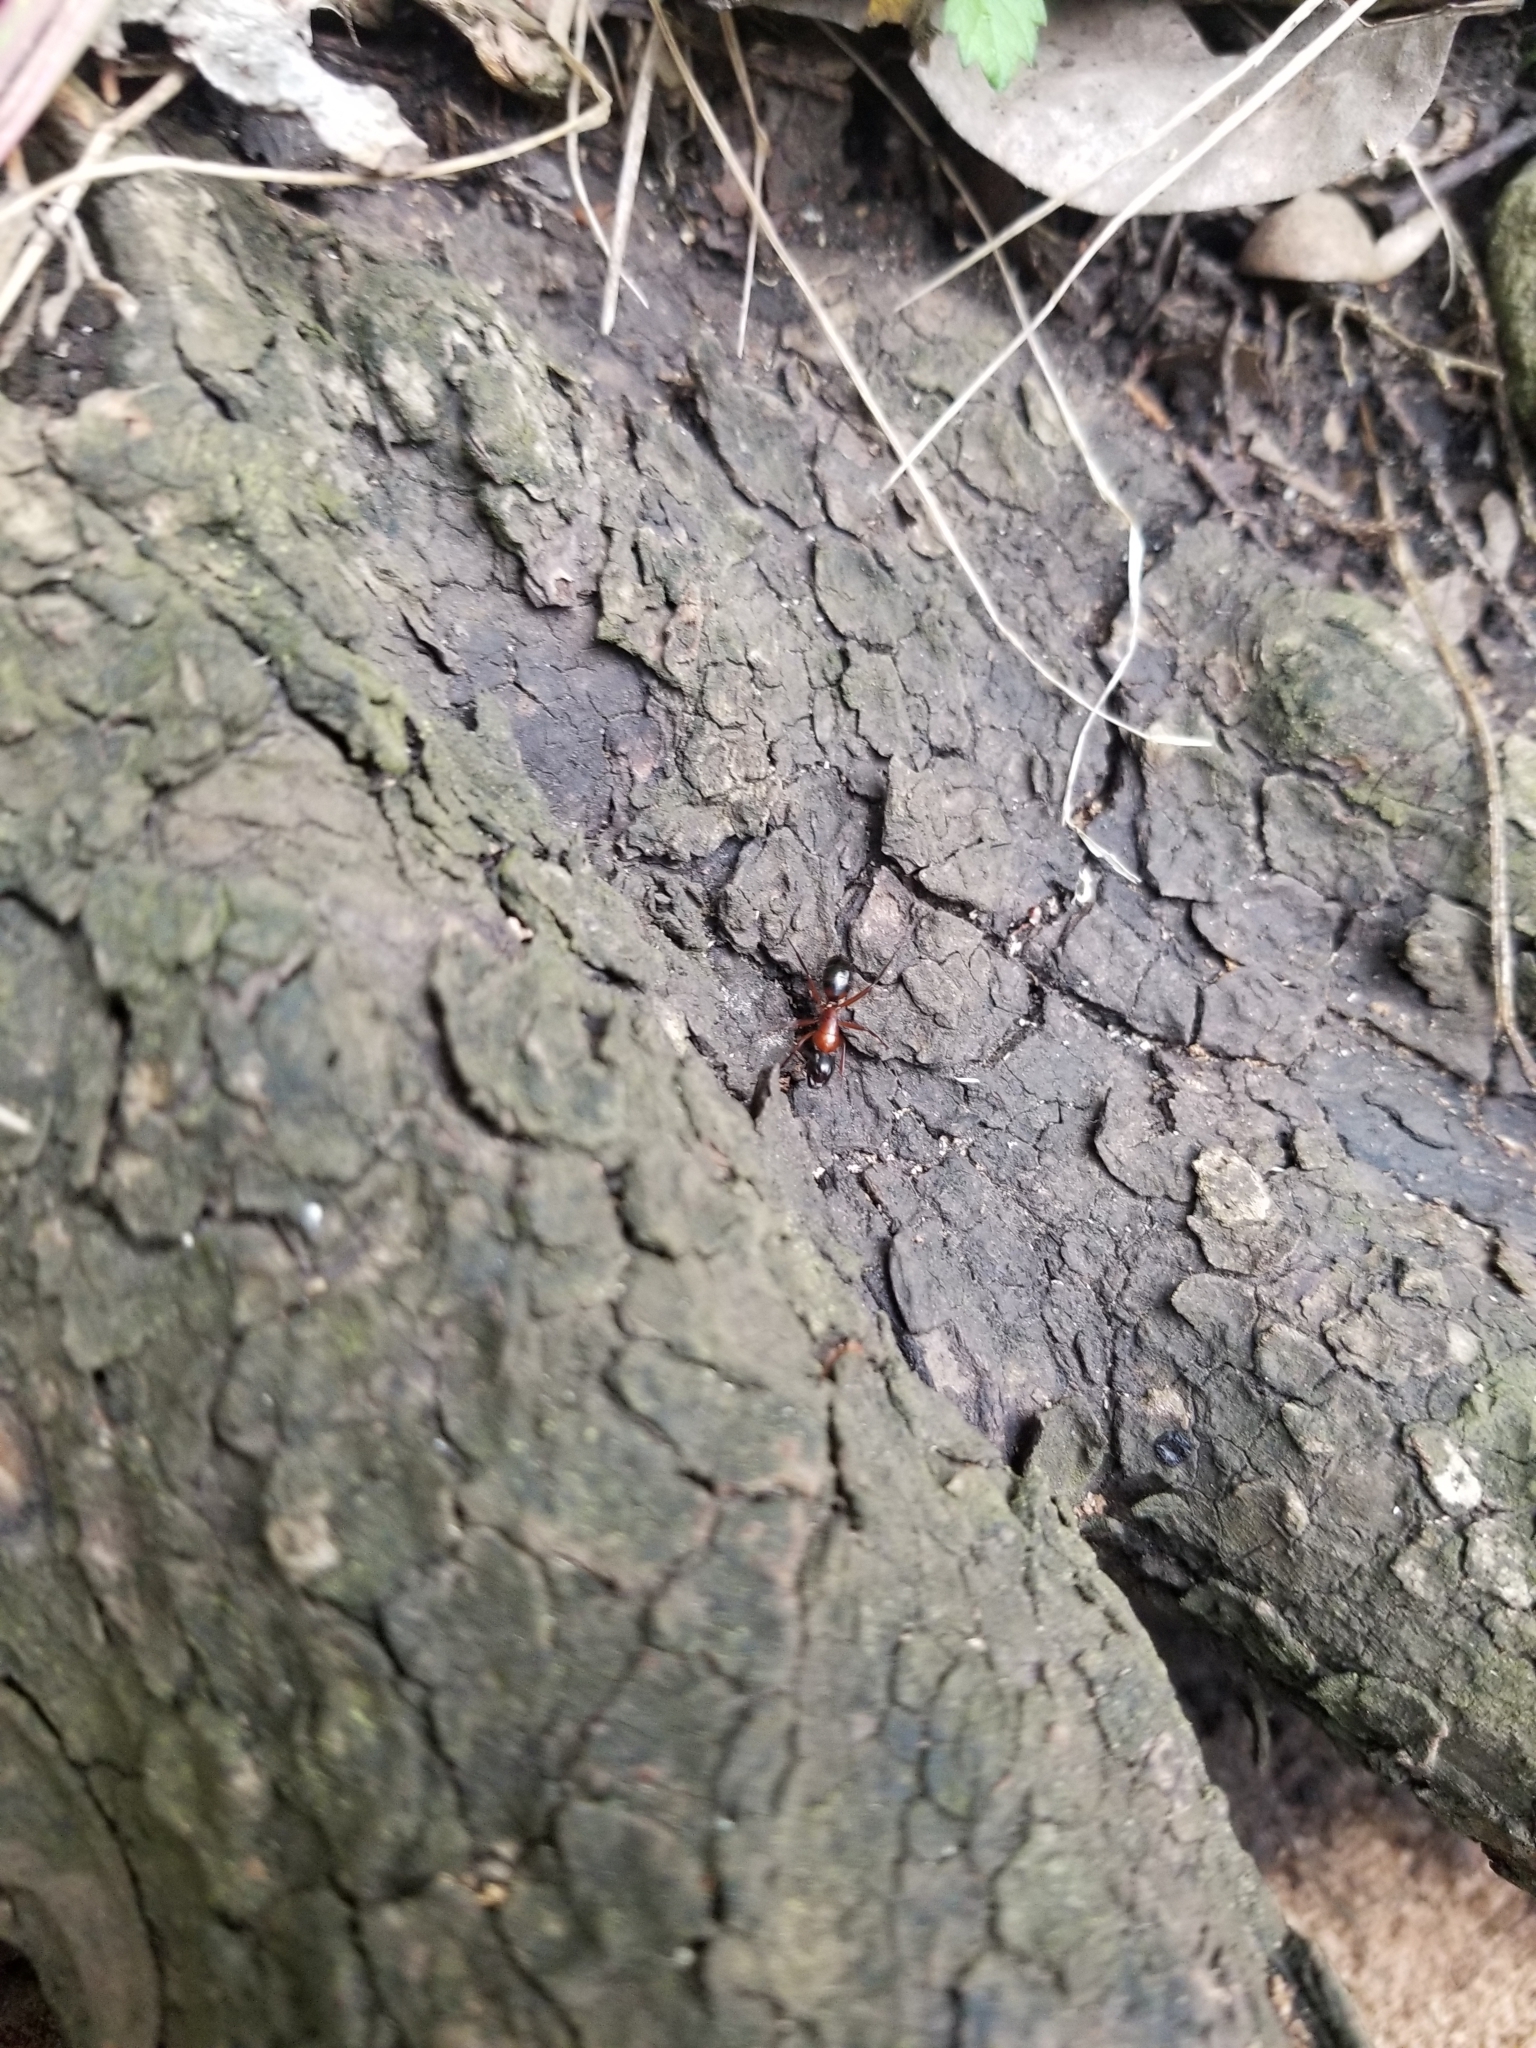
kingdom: Animalia
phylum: Arthropoda
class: Insecta
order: Hymenoptera
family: Formicidae
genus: Camponotus
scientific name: Camponotus texanus
